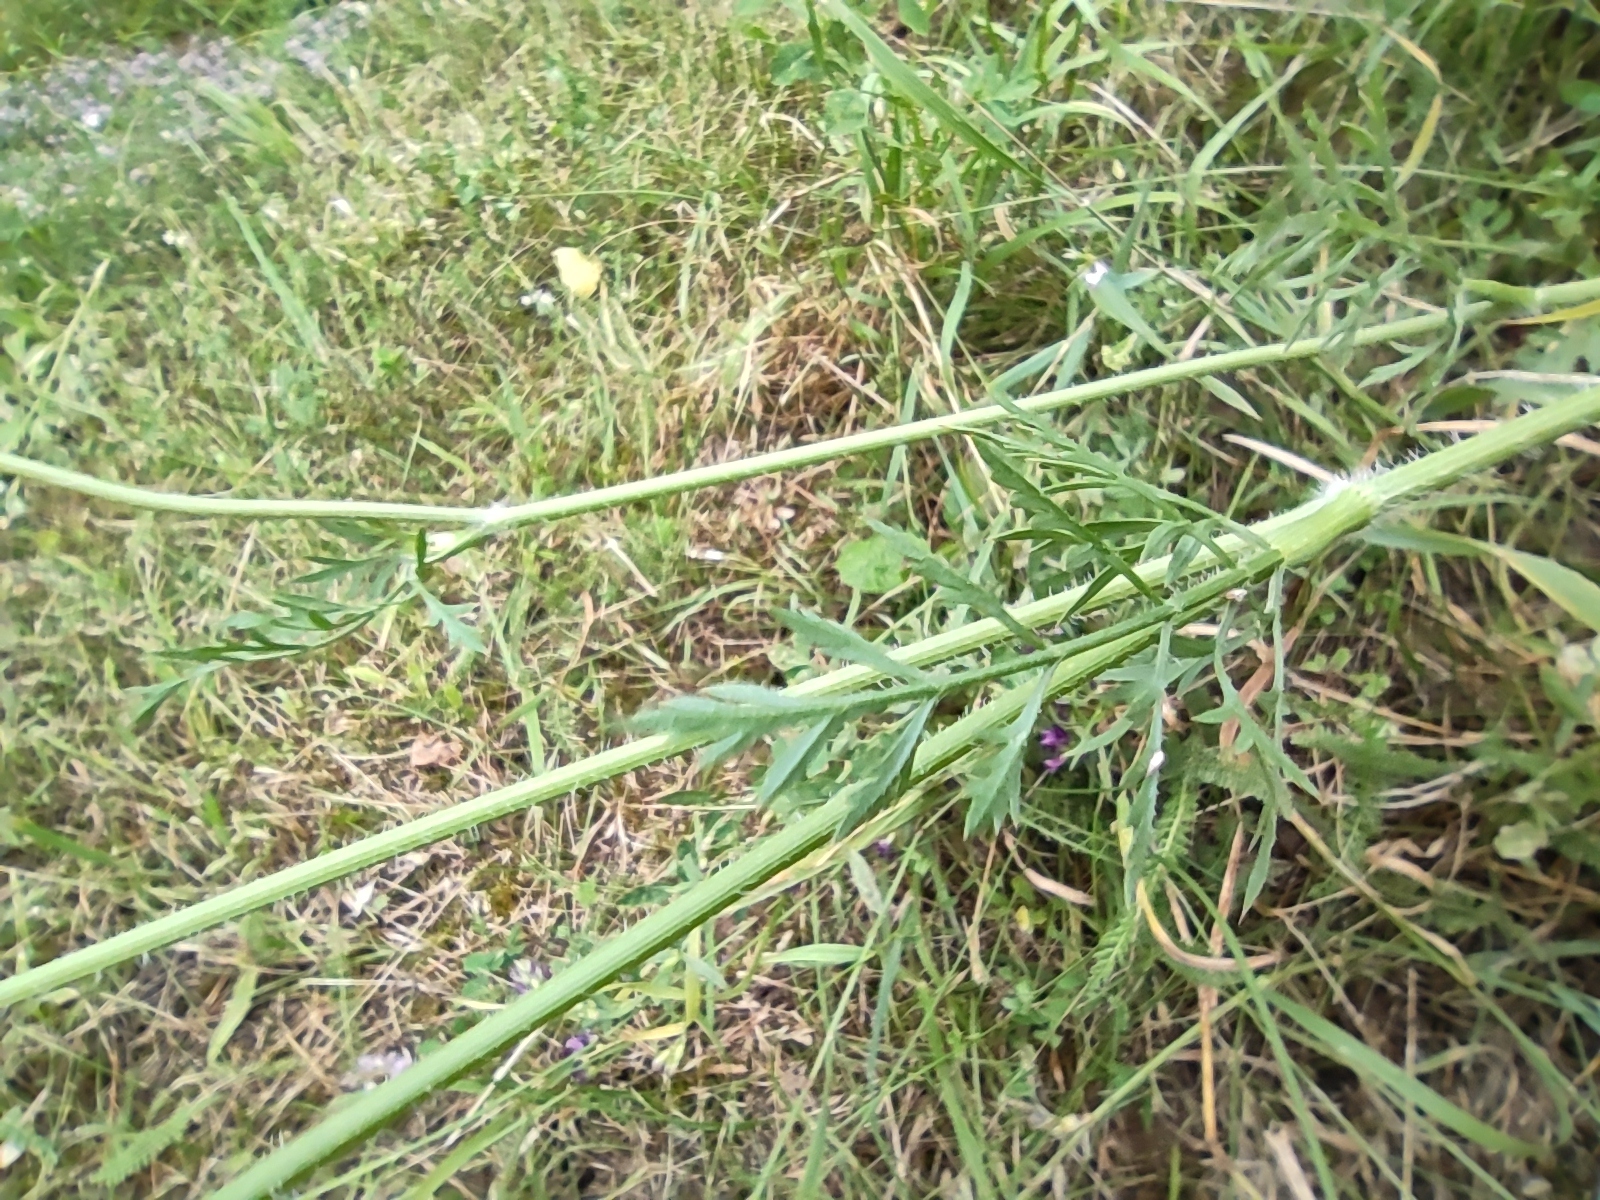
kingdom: Plantae
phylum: Tracheophyta
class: Magnoliopsida
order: Apiales
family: Apiaceae
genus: Daucus
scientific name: Daucus carota
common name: Wild carrot
